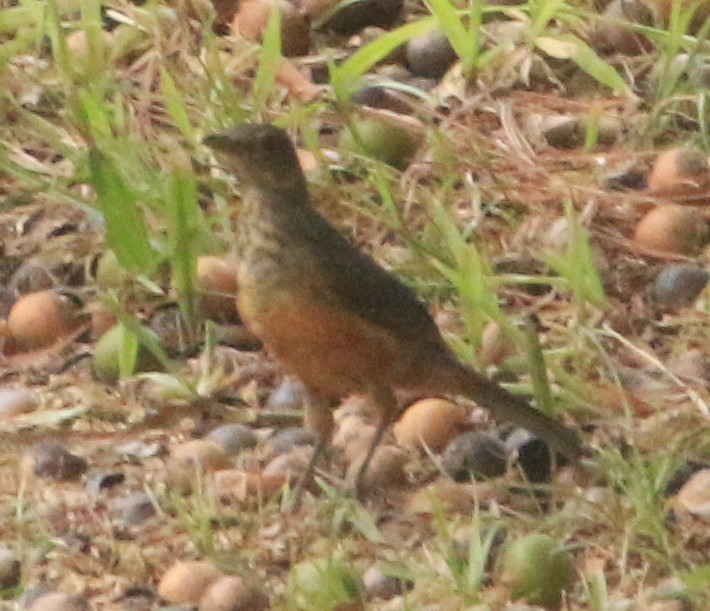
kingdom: Animalia
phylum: Chordata
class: Aves
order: Passeriformes
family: Turdidae
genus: Turdus
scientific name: Turdus rufiventris
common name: Rufous-bellied thrush
